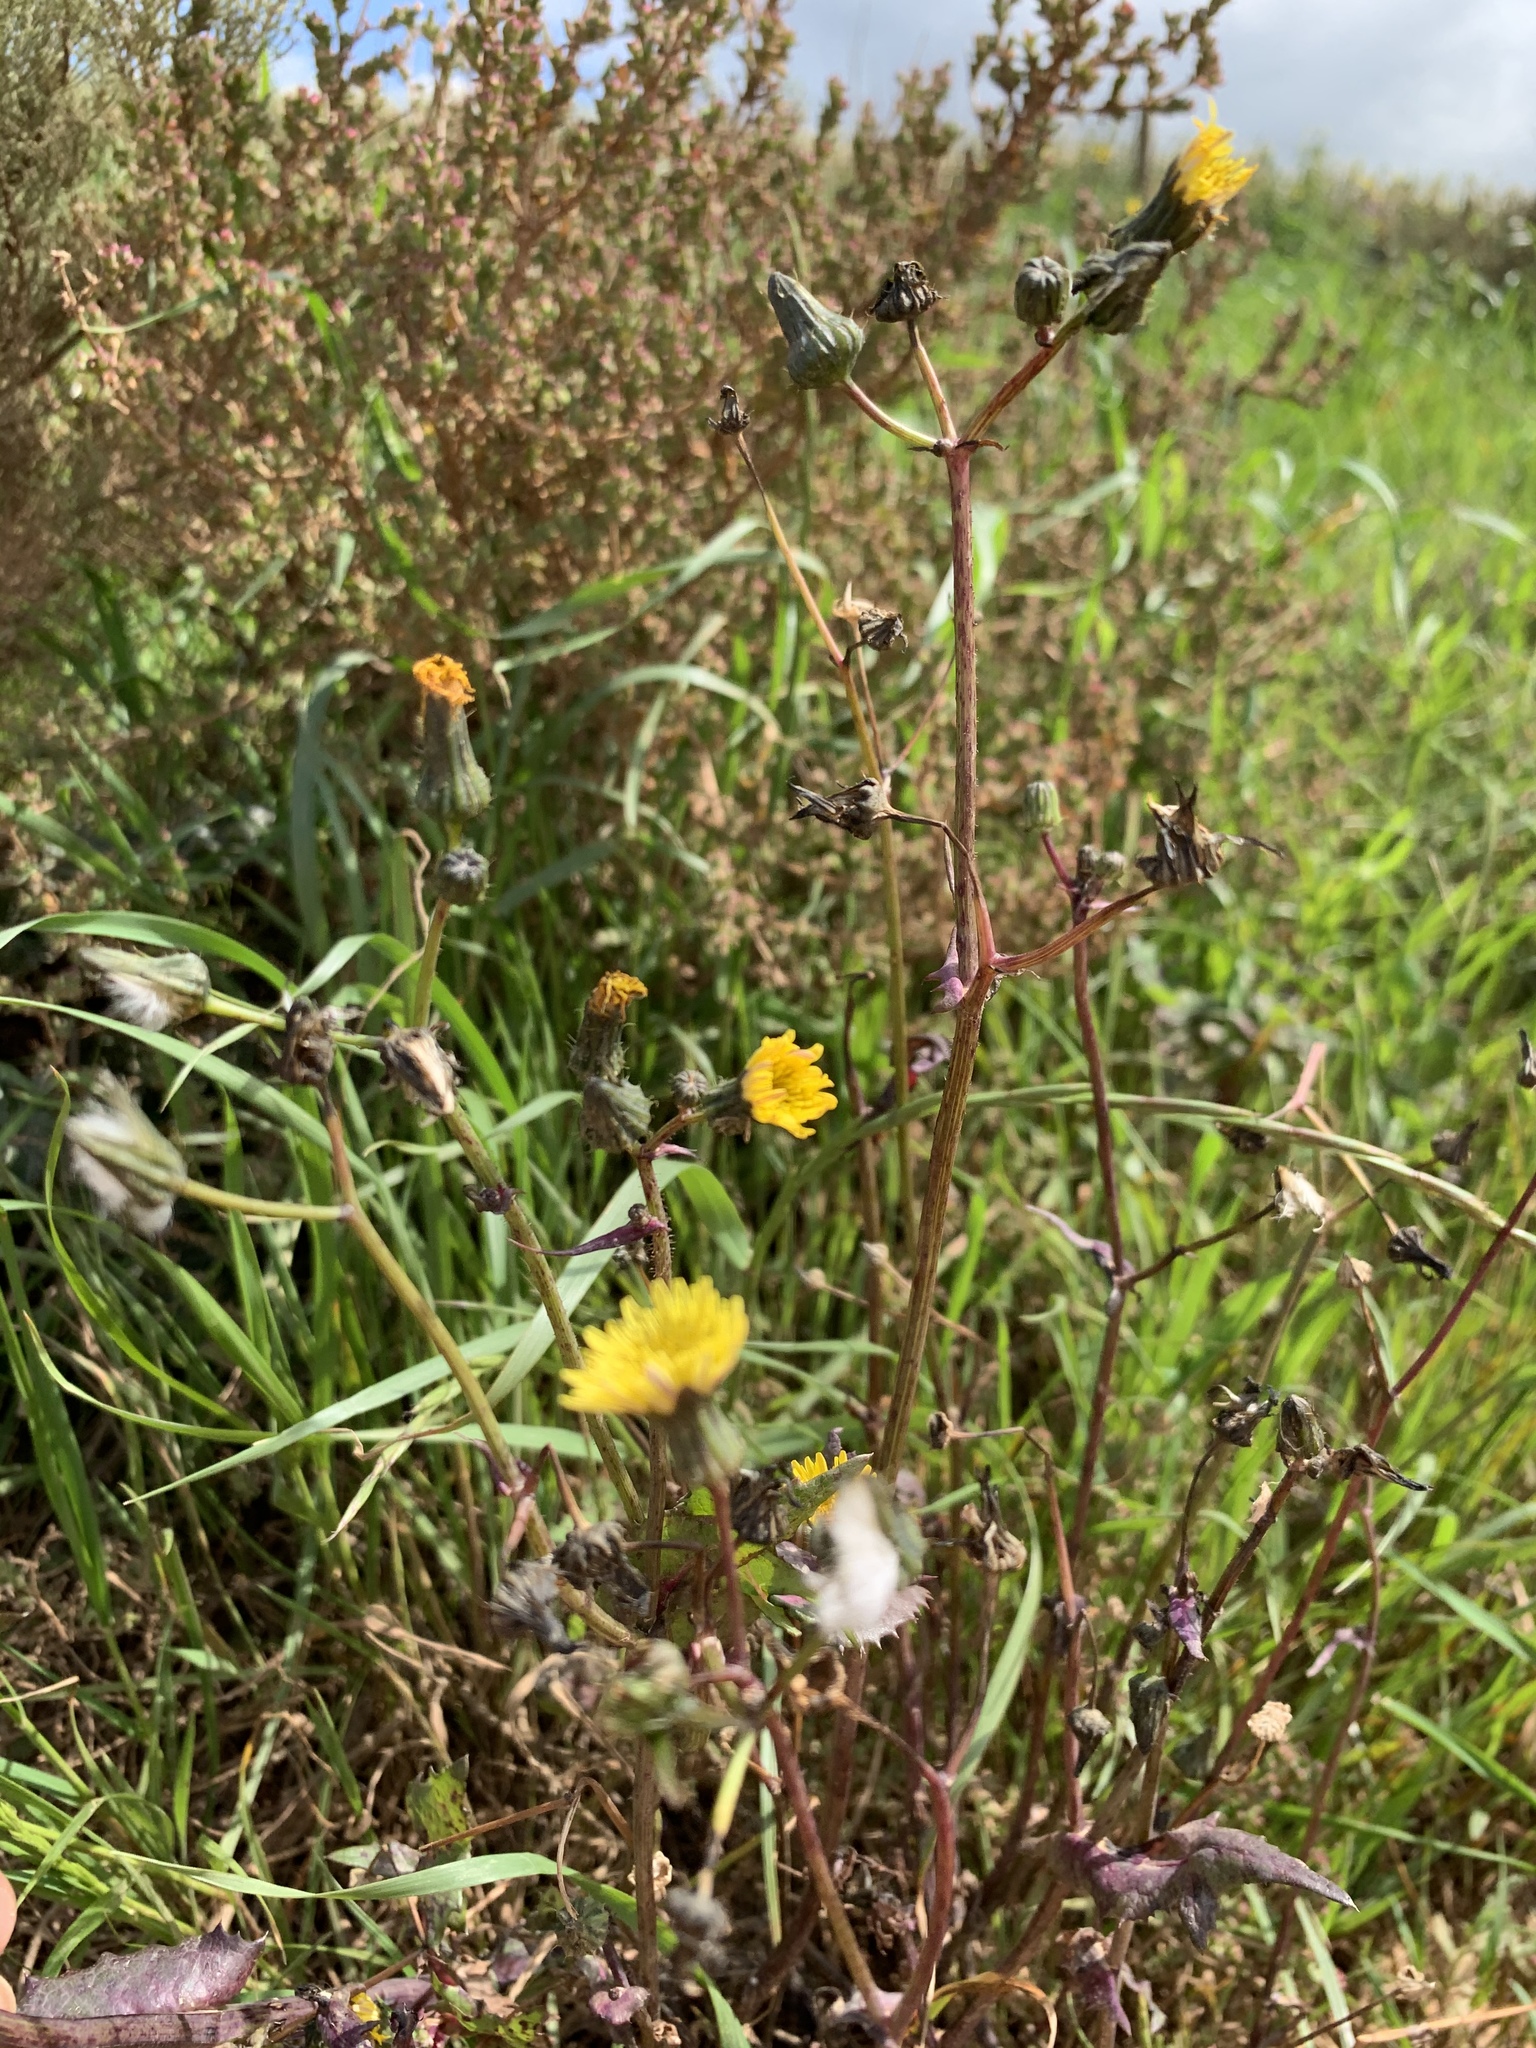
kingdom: Plantae
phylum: Tracheophyta
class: Magnoliopsida
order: Asterales
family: Asteraceae
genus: Sonchus
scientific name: Sonchus oleraceus
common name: Common sowthistle
